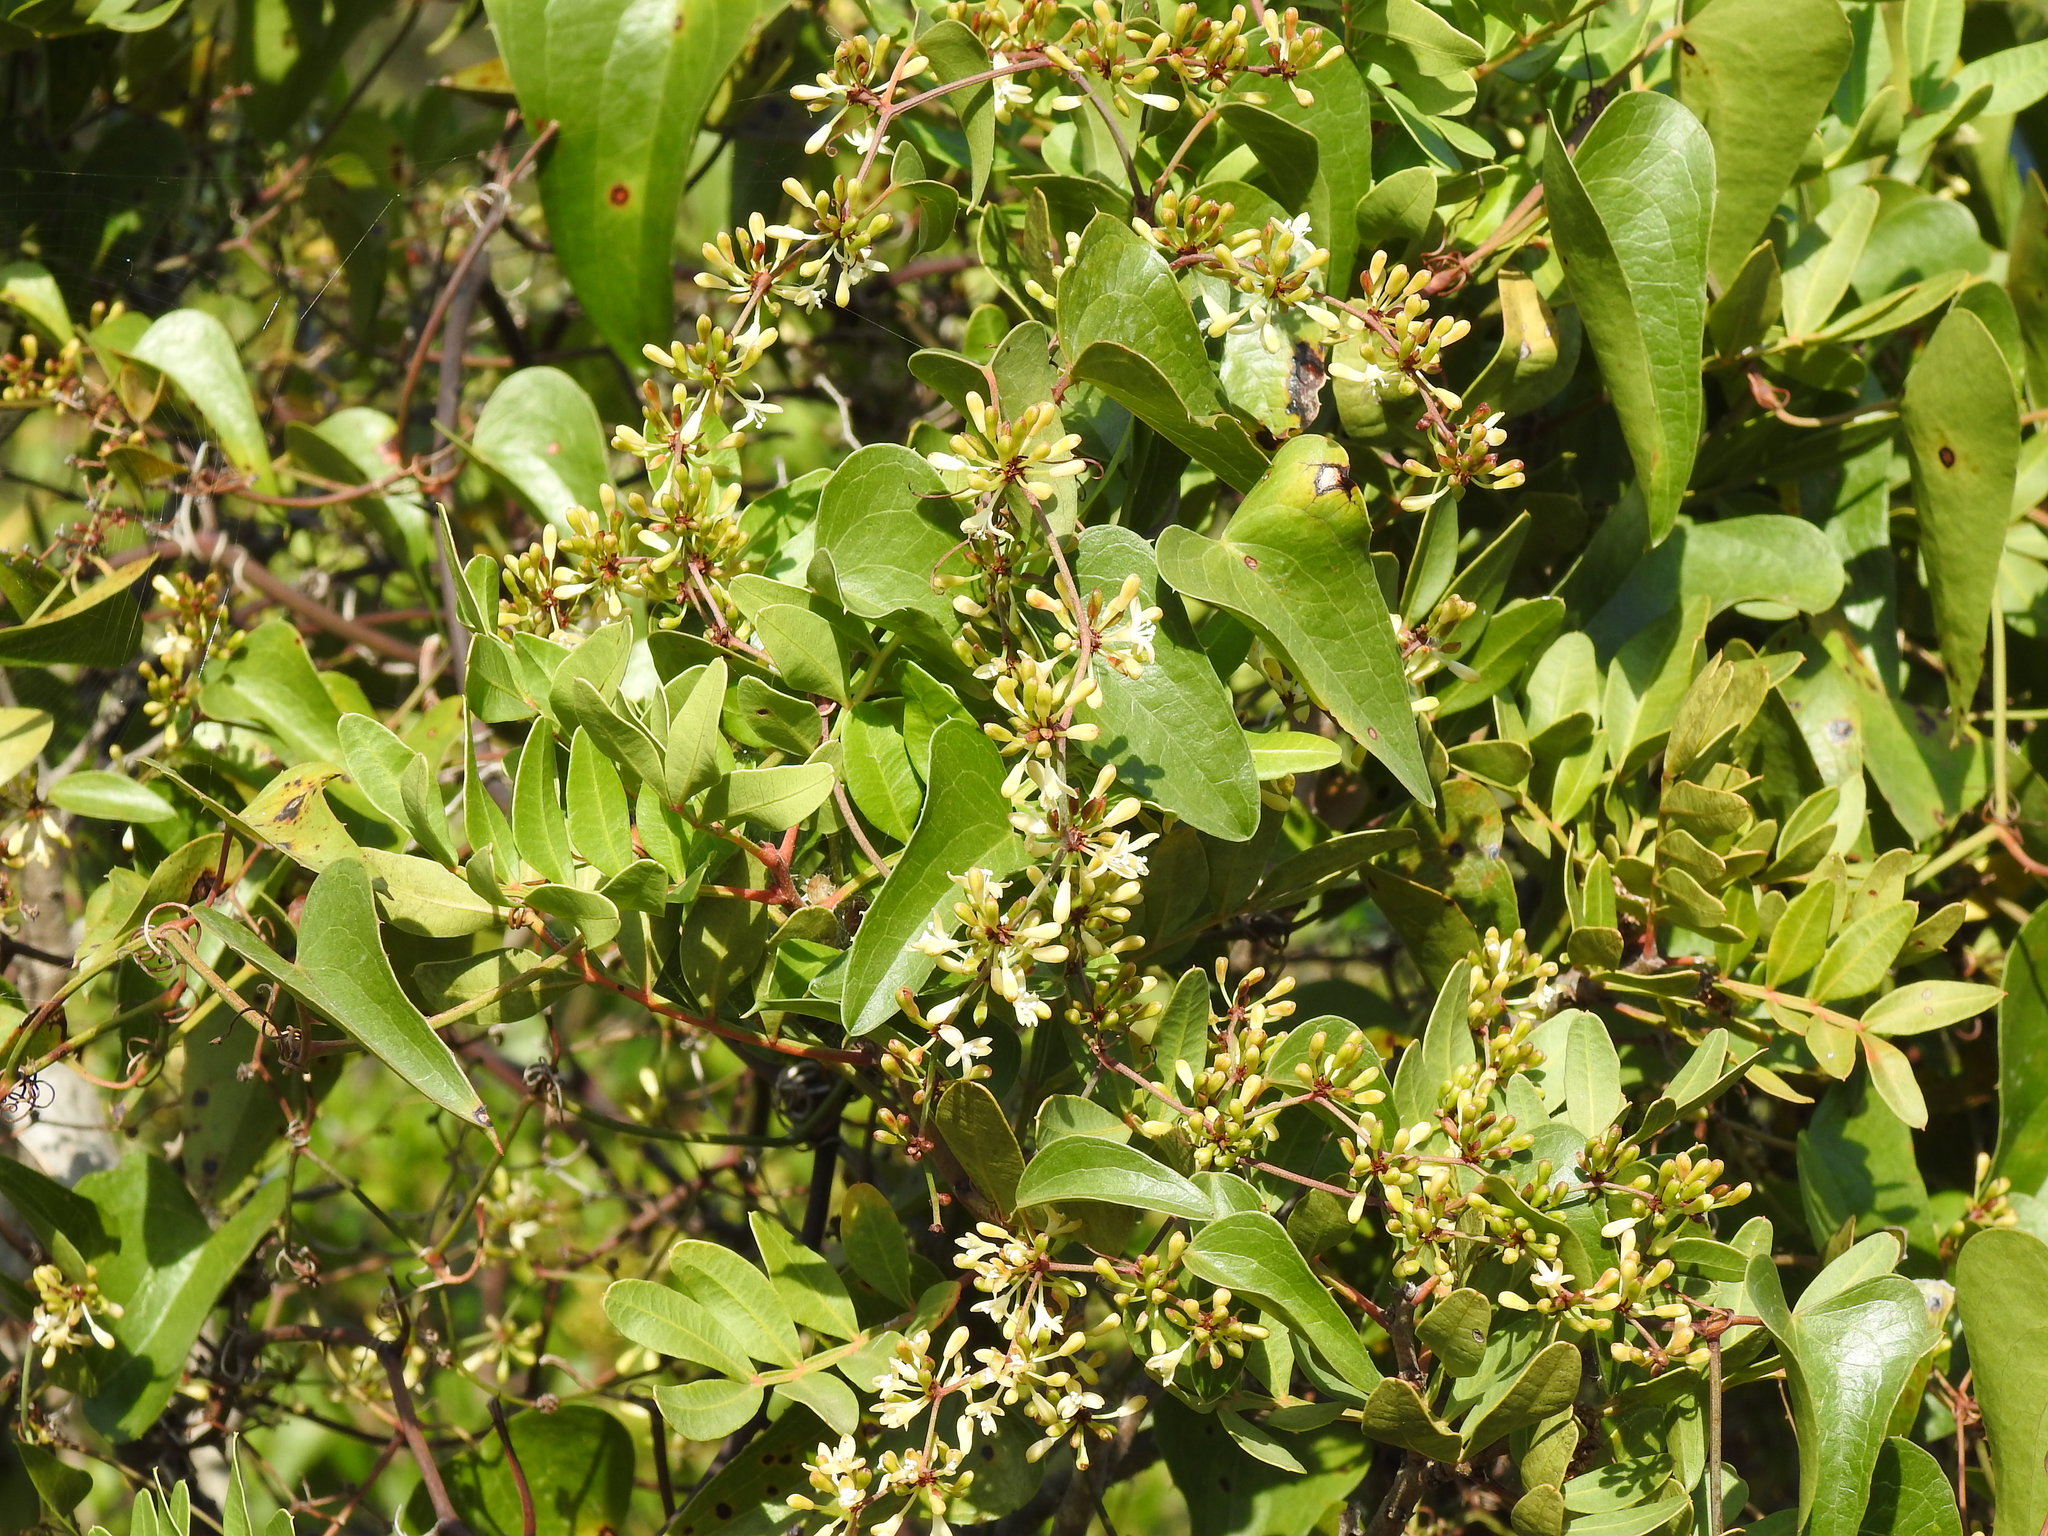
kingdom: Plantae
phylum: Tracheophyta
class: Liliopsida
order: Liliales
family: Smilacaceae
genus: Smilax
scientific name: Smilax aspera
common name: Common smilax
